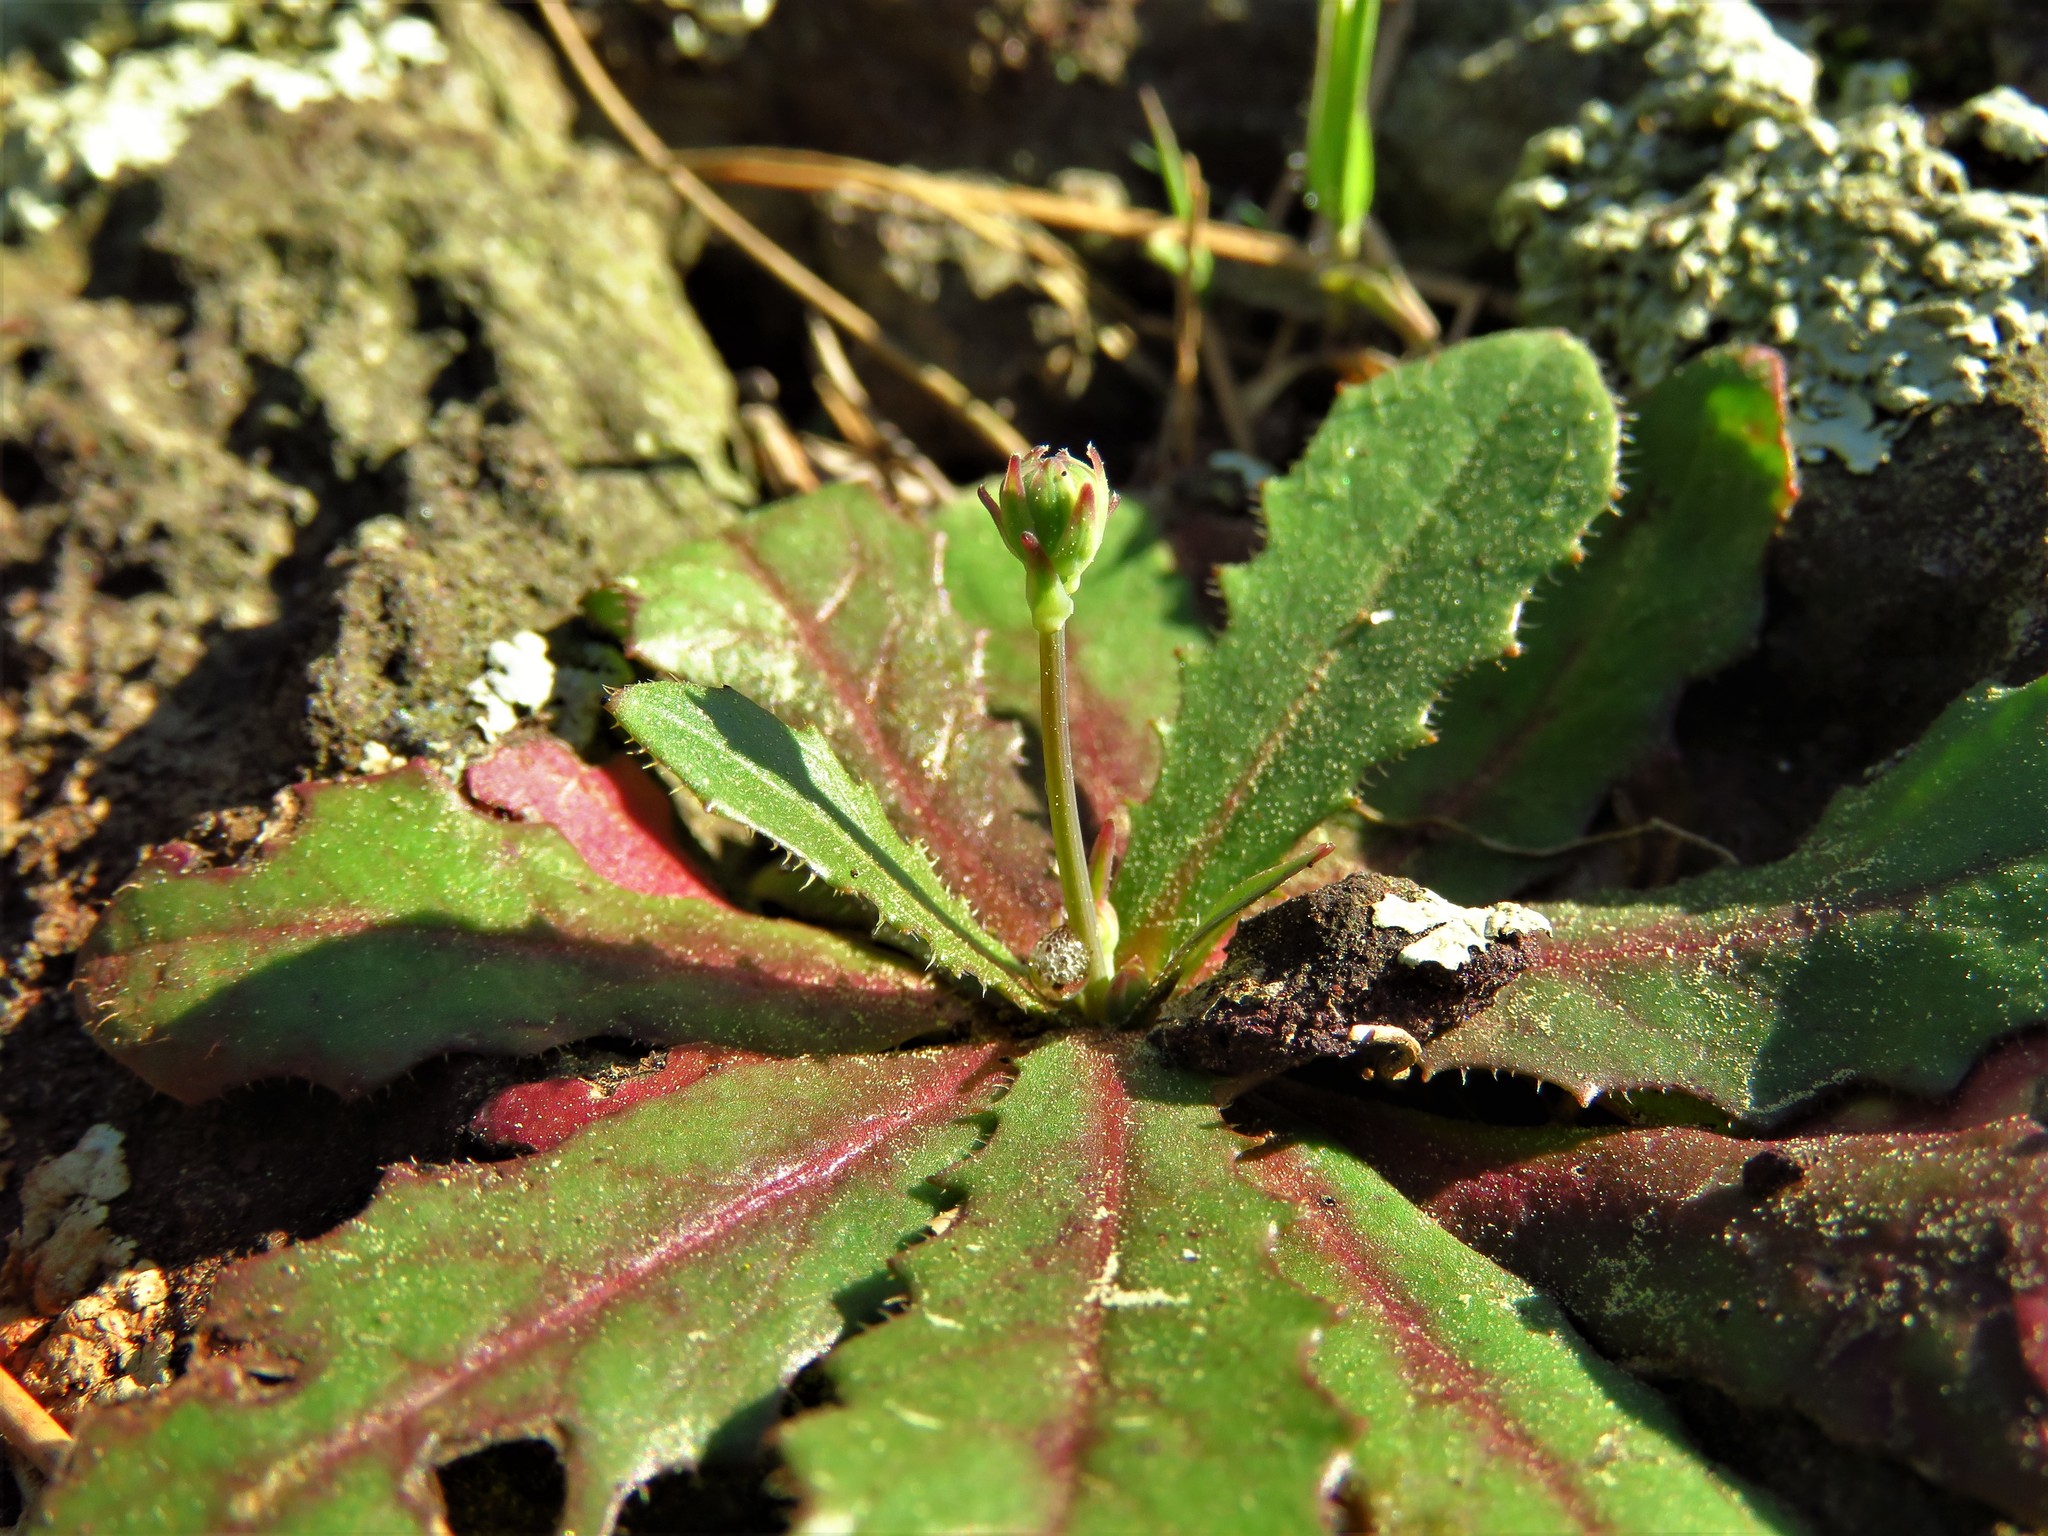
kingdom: Plantae
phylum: Tracheophyta
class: Magnoliopsida
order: Asterales
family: Asteraceae
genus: Hypochaeris
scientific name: Hypochaeris glabra
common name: Smooth catsear
